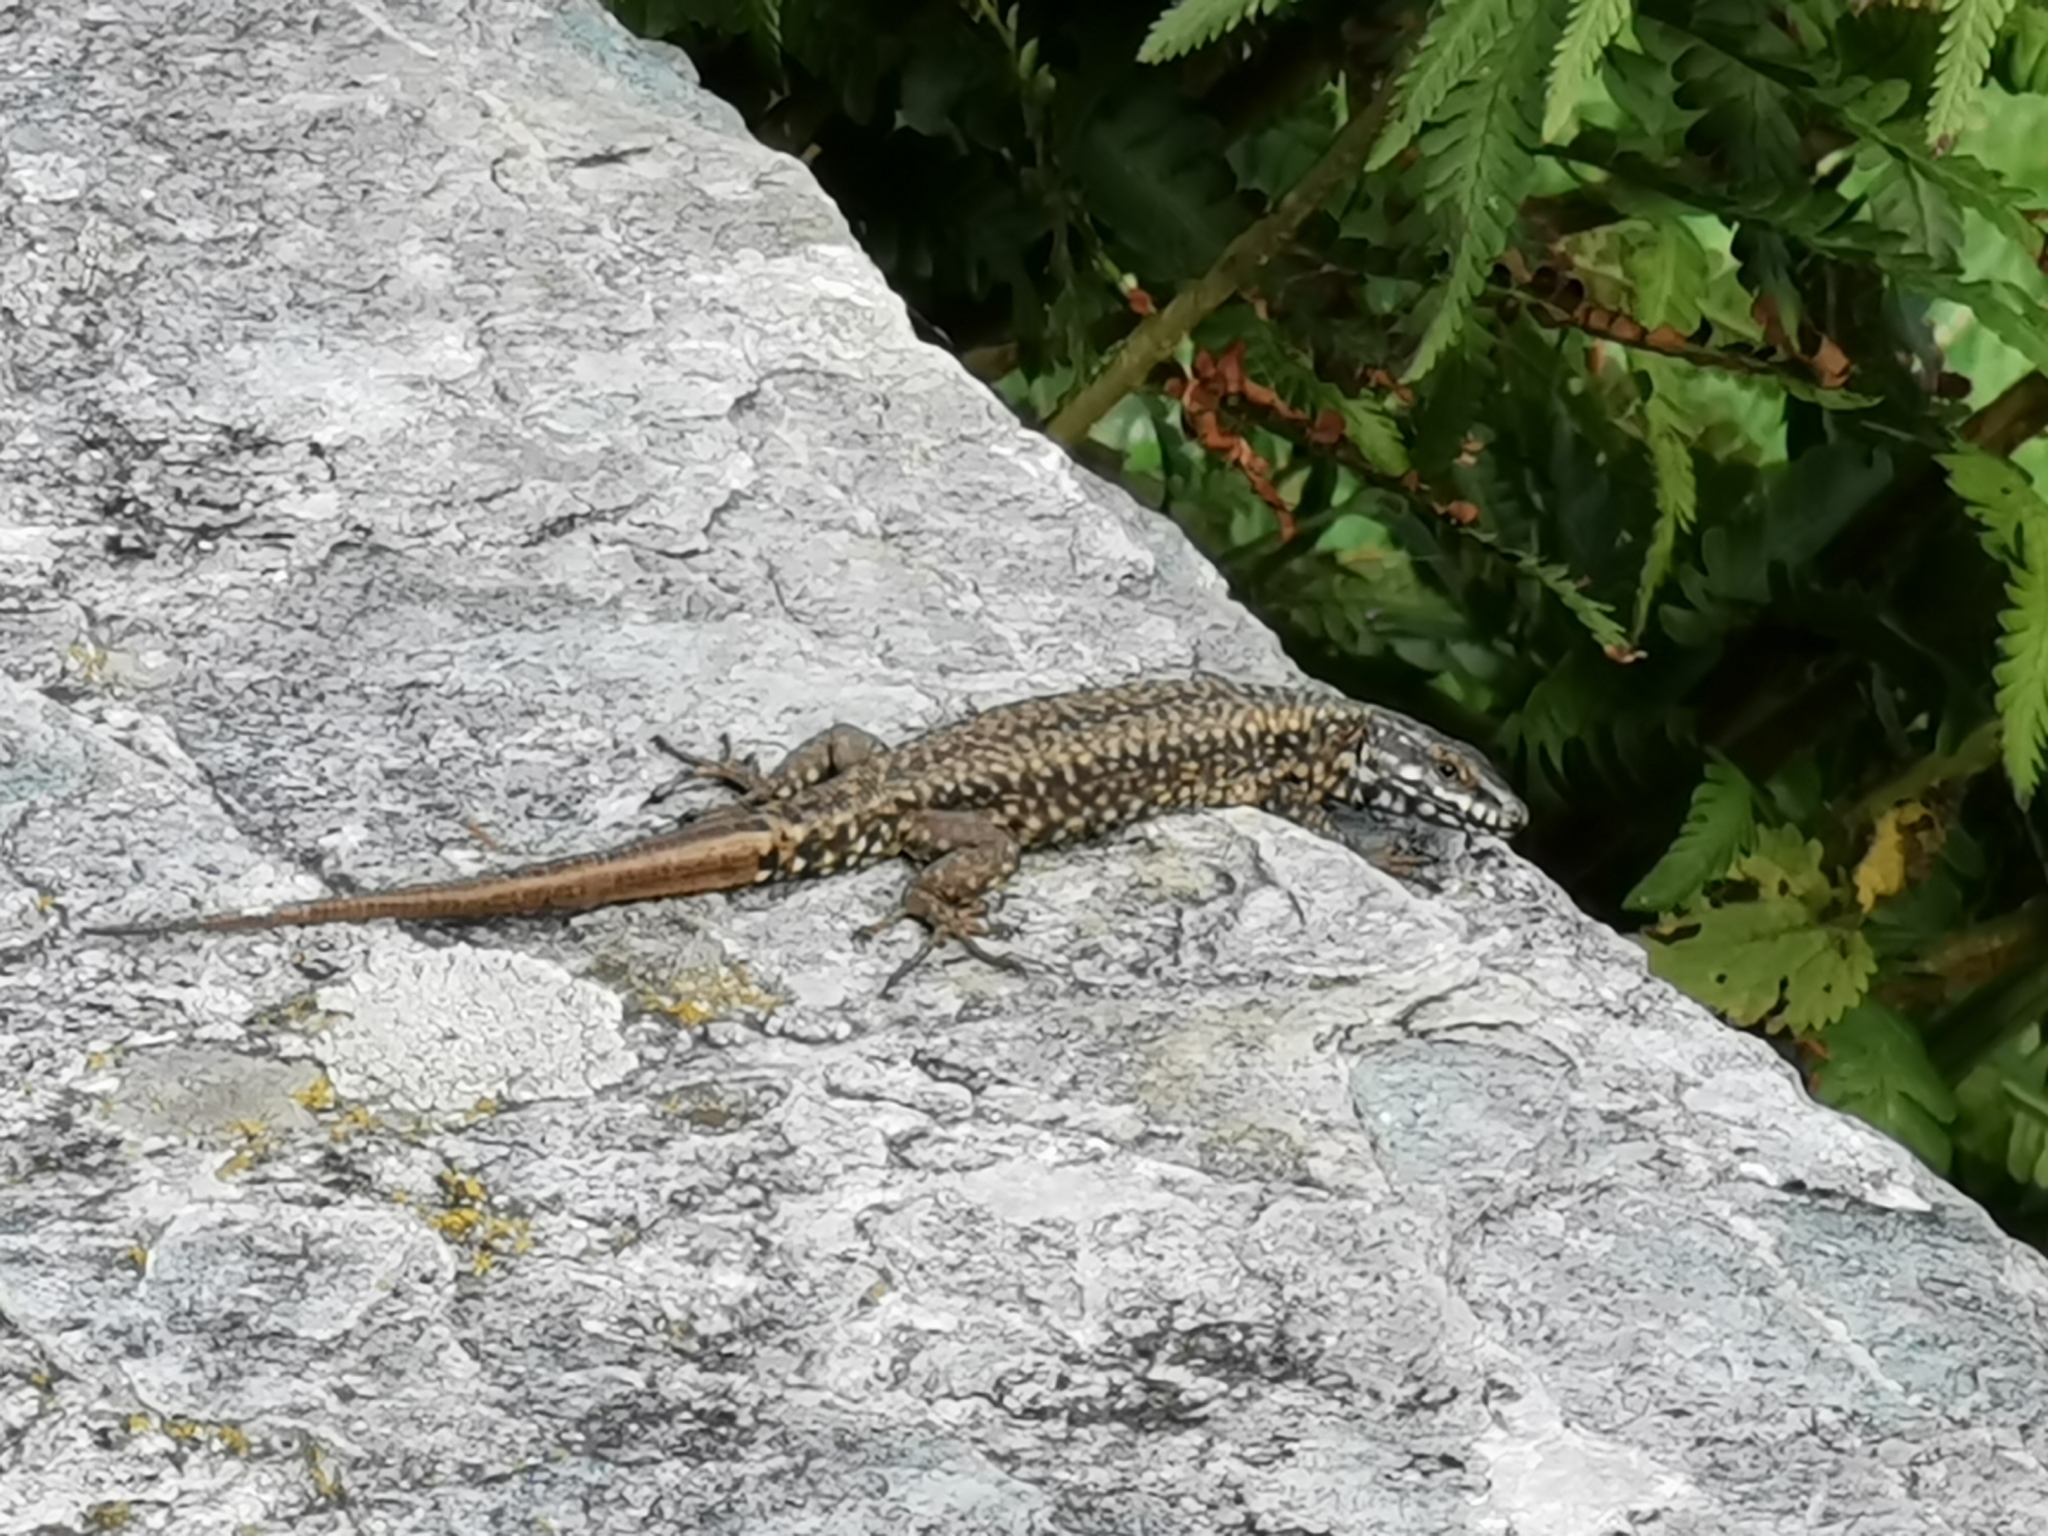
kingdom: Animalia
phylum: Chordata
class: Squamata
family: Lacertidae
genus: Podarcis
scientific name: Podarcis muralis
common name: Common wall lizard
